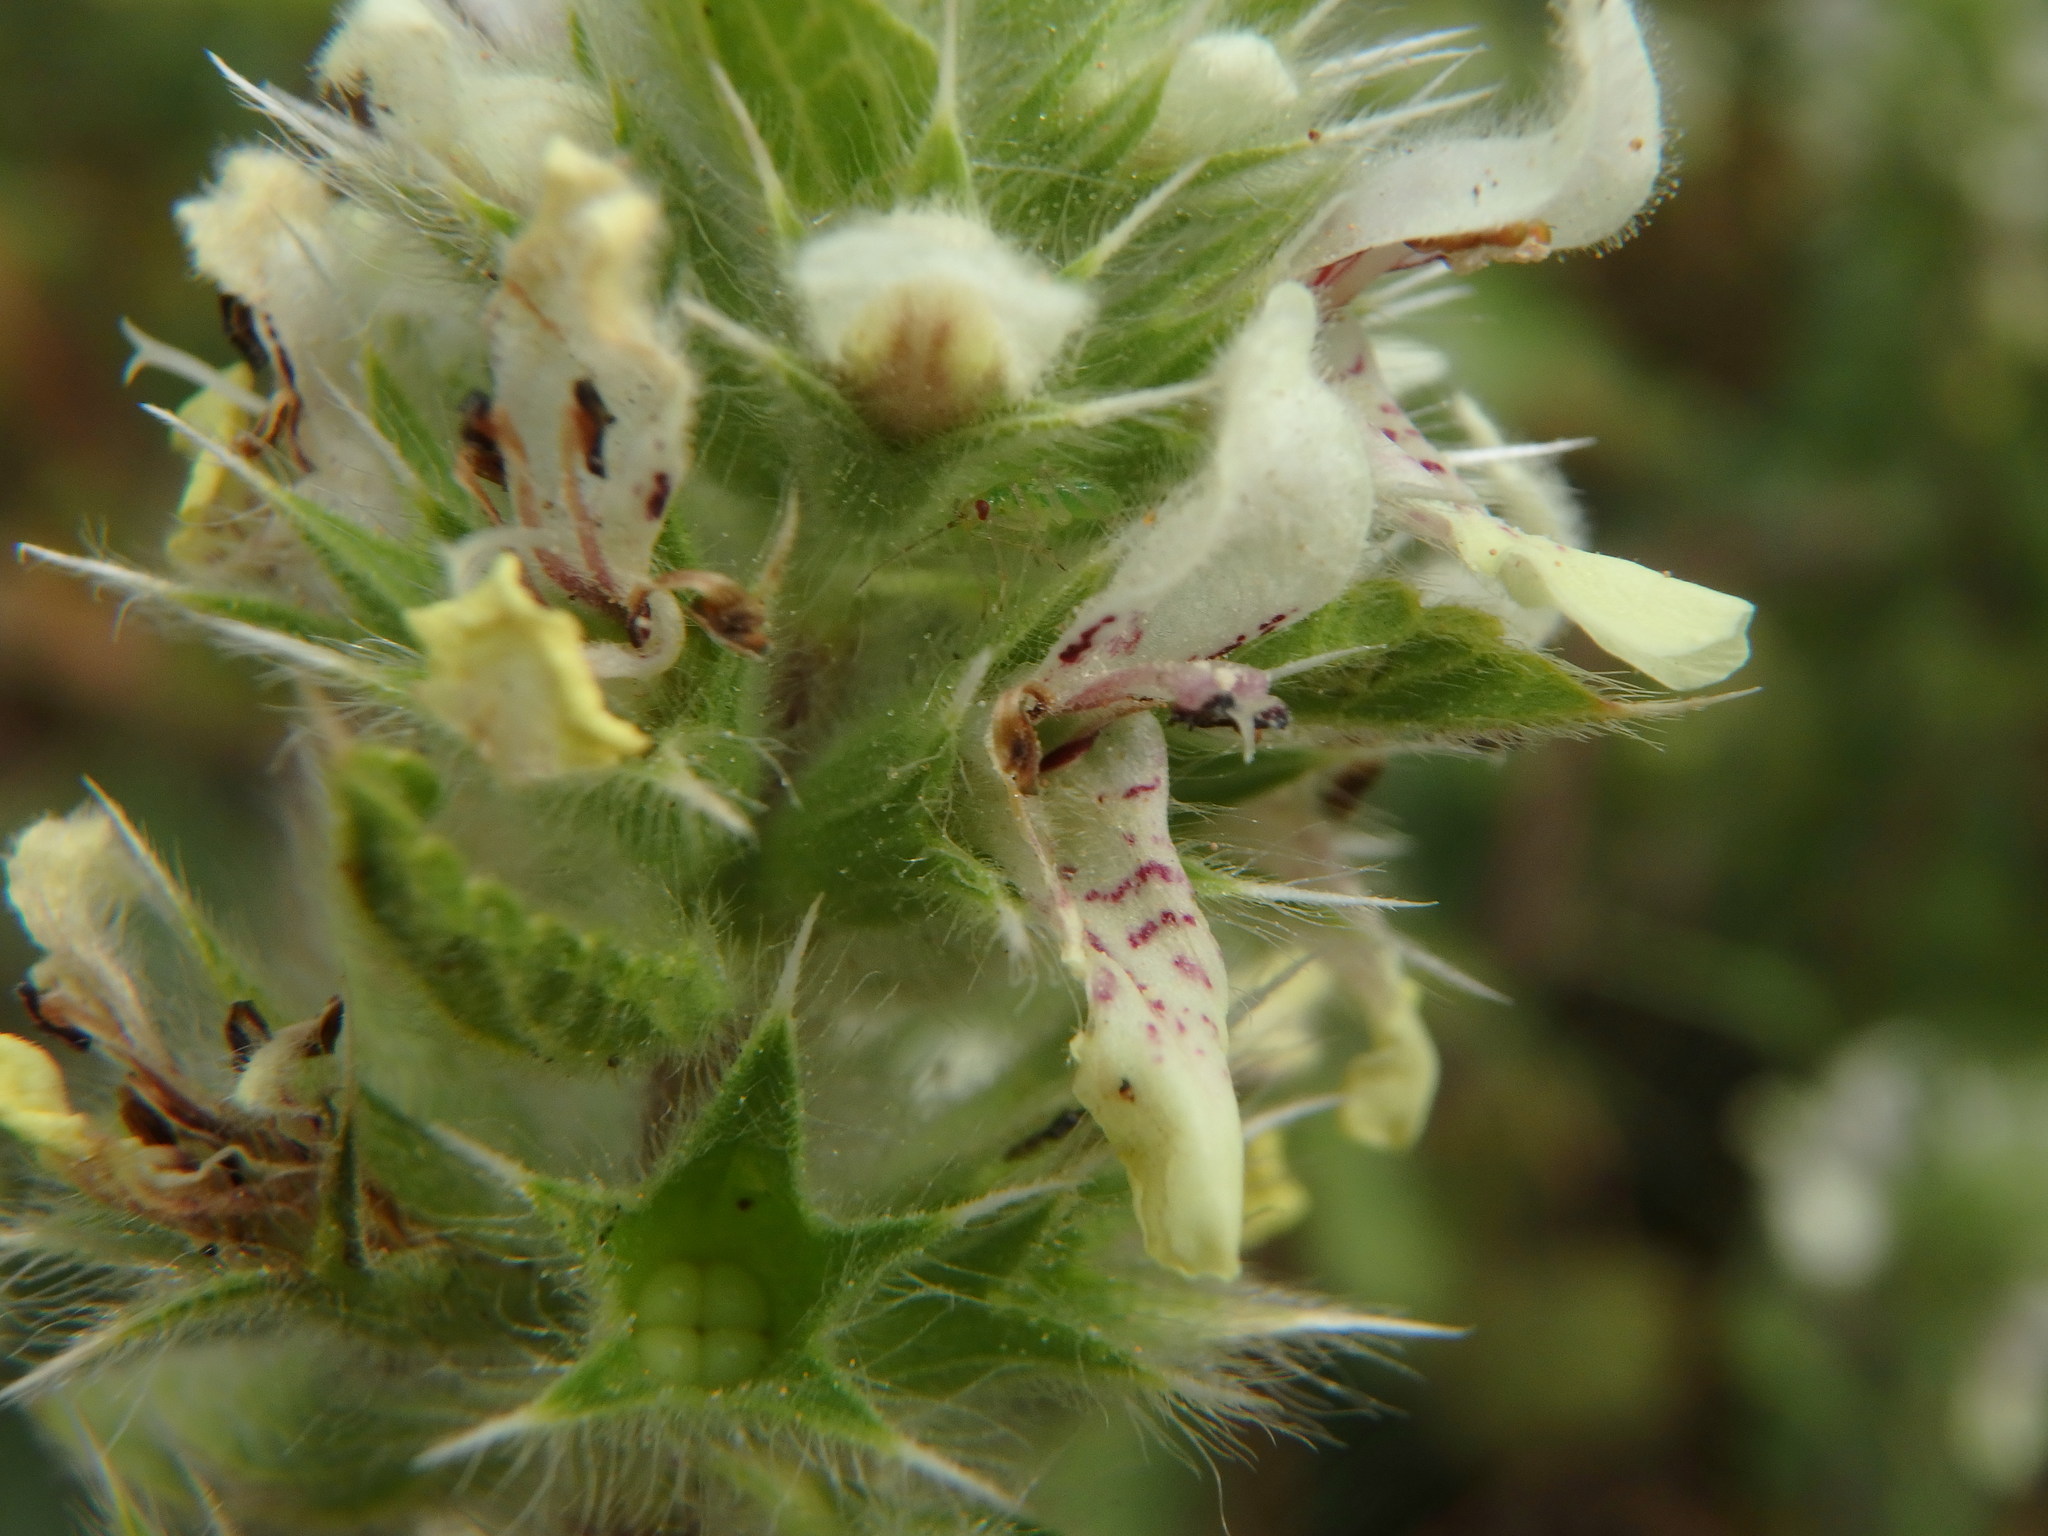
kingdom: Plantae
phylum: Tracheophyta
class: Magnoliopsida
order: Lamiales
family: Lamiaceae
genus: Stachys
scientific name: Stachys ocymastrum
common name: Italian hedgenettle
